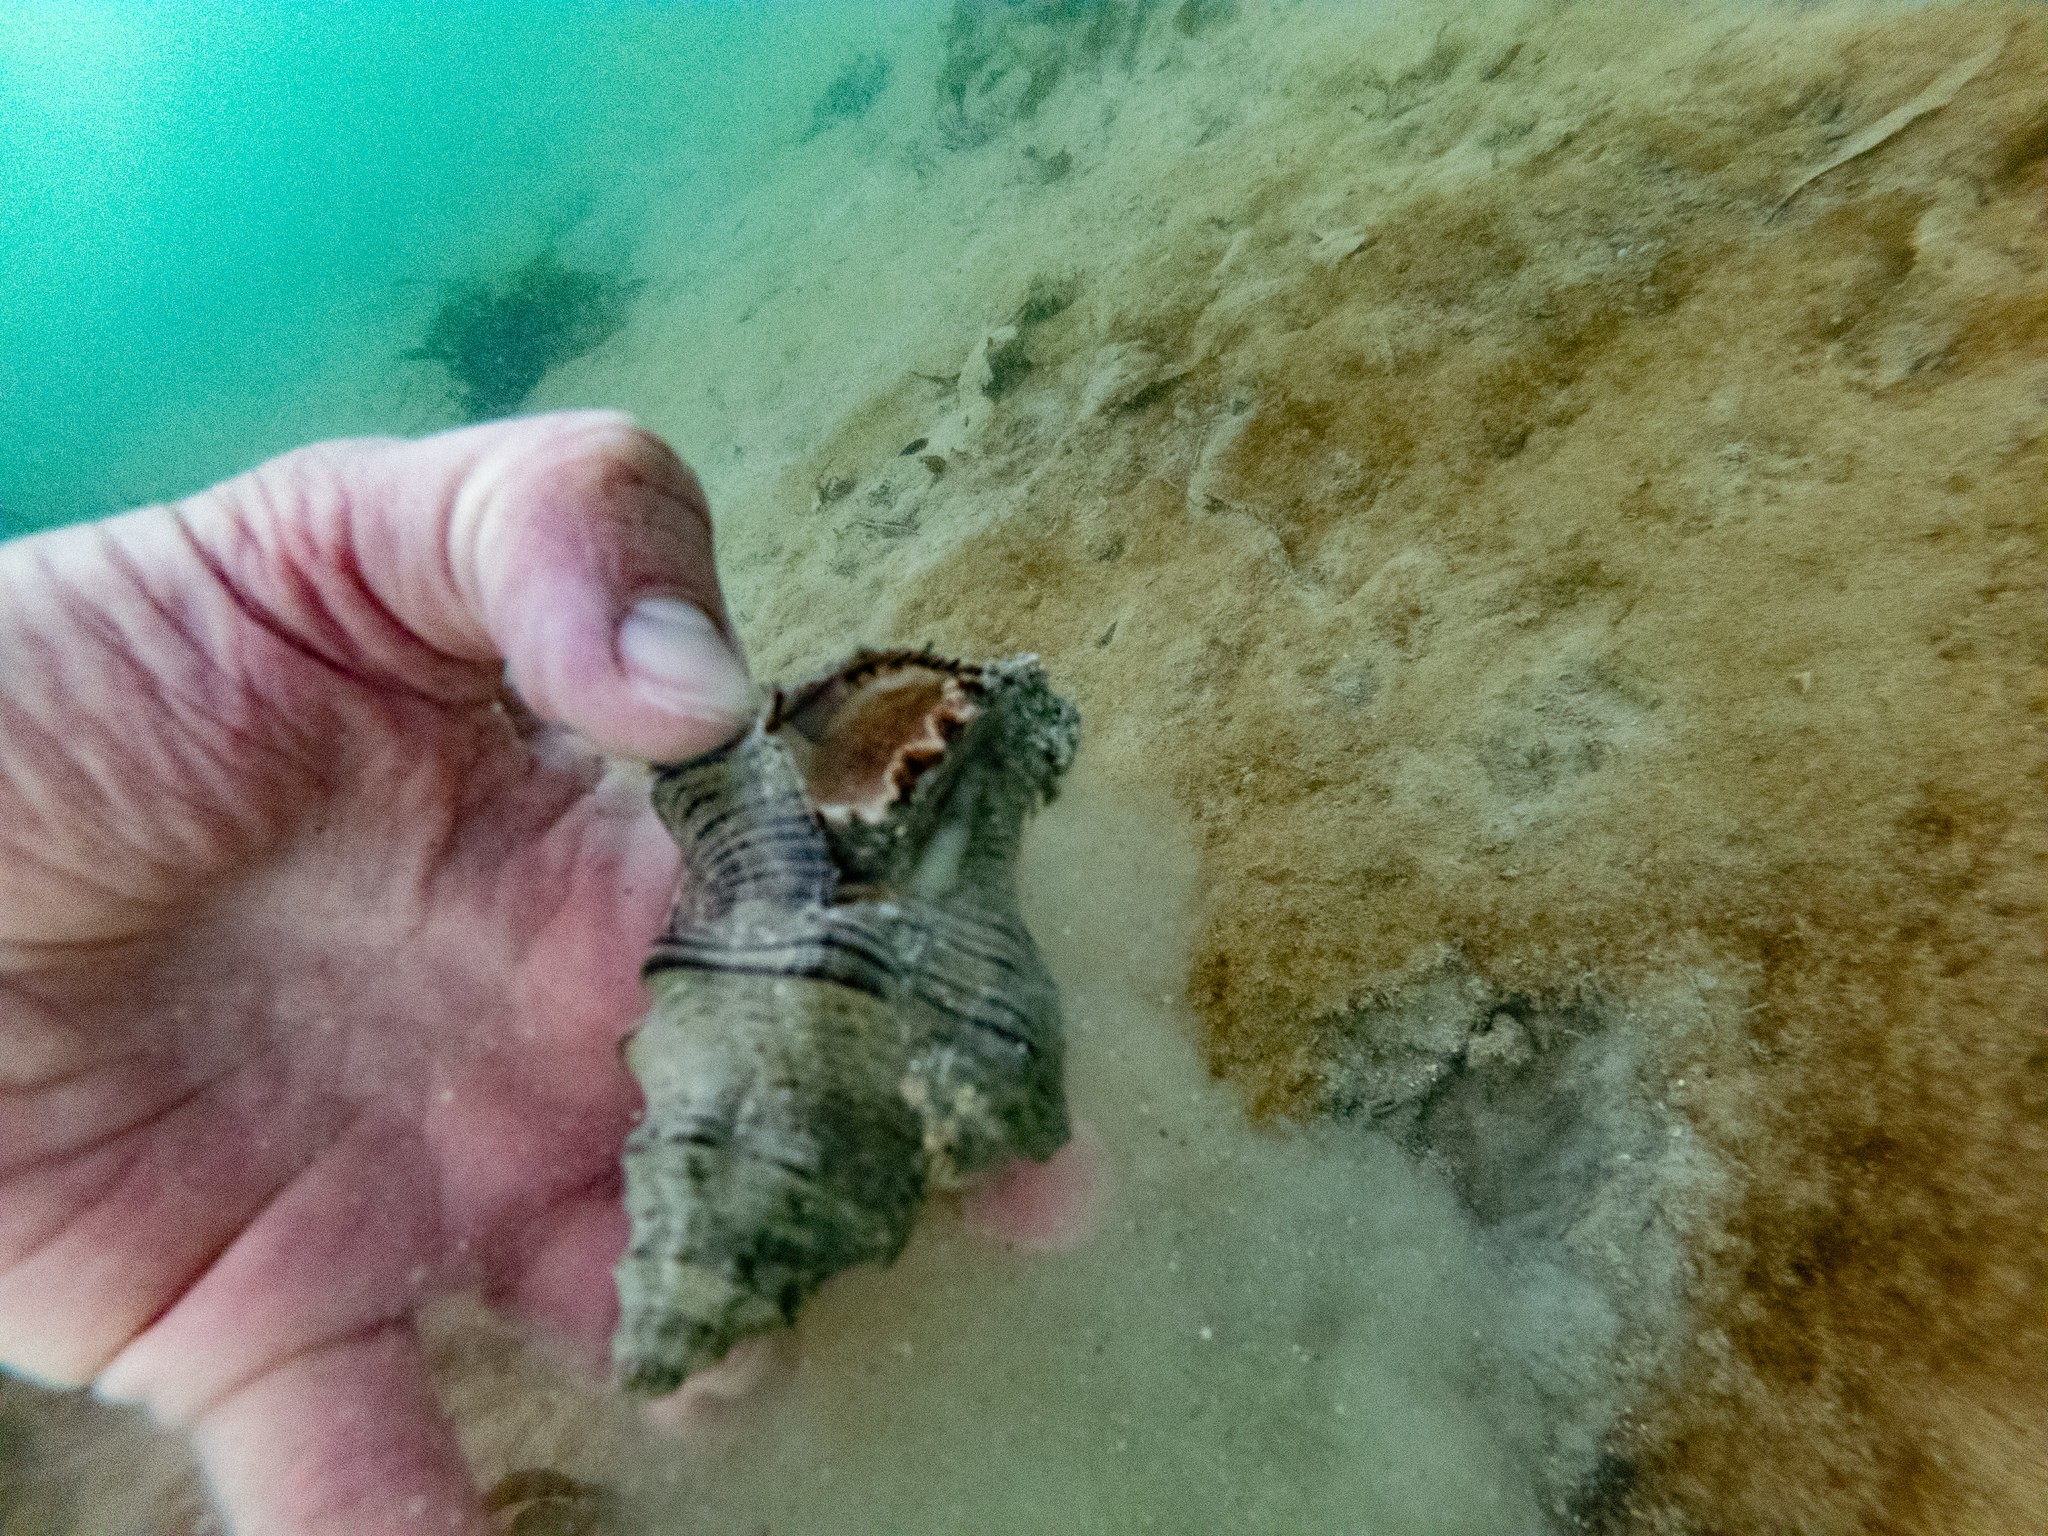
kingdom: Animalia
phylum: Mollusca
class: Gastropoda
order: Neogastropoda
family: Austrosiphonidae
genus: Penion
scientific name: Penion sulcatus
